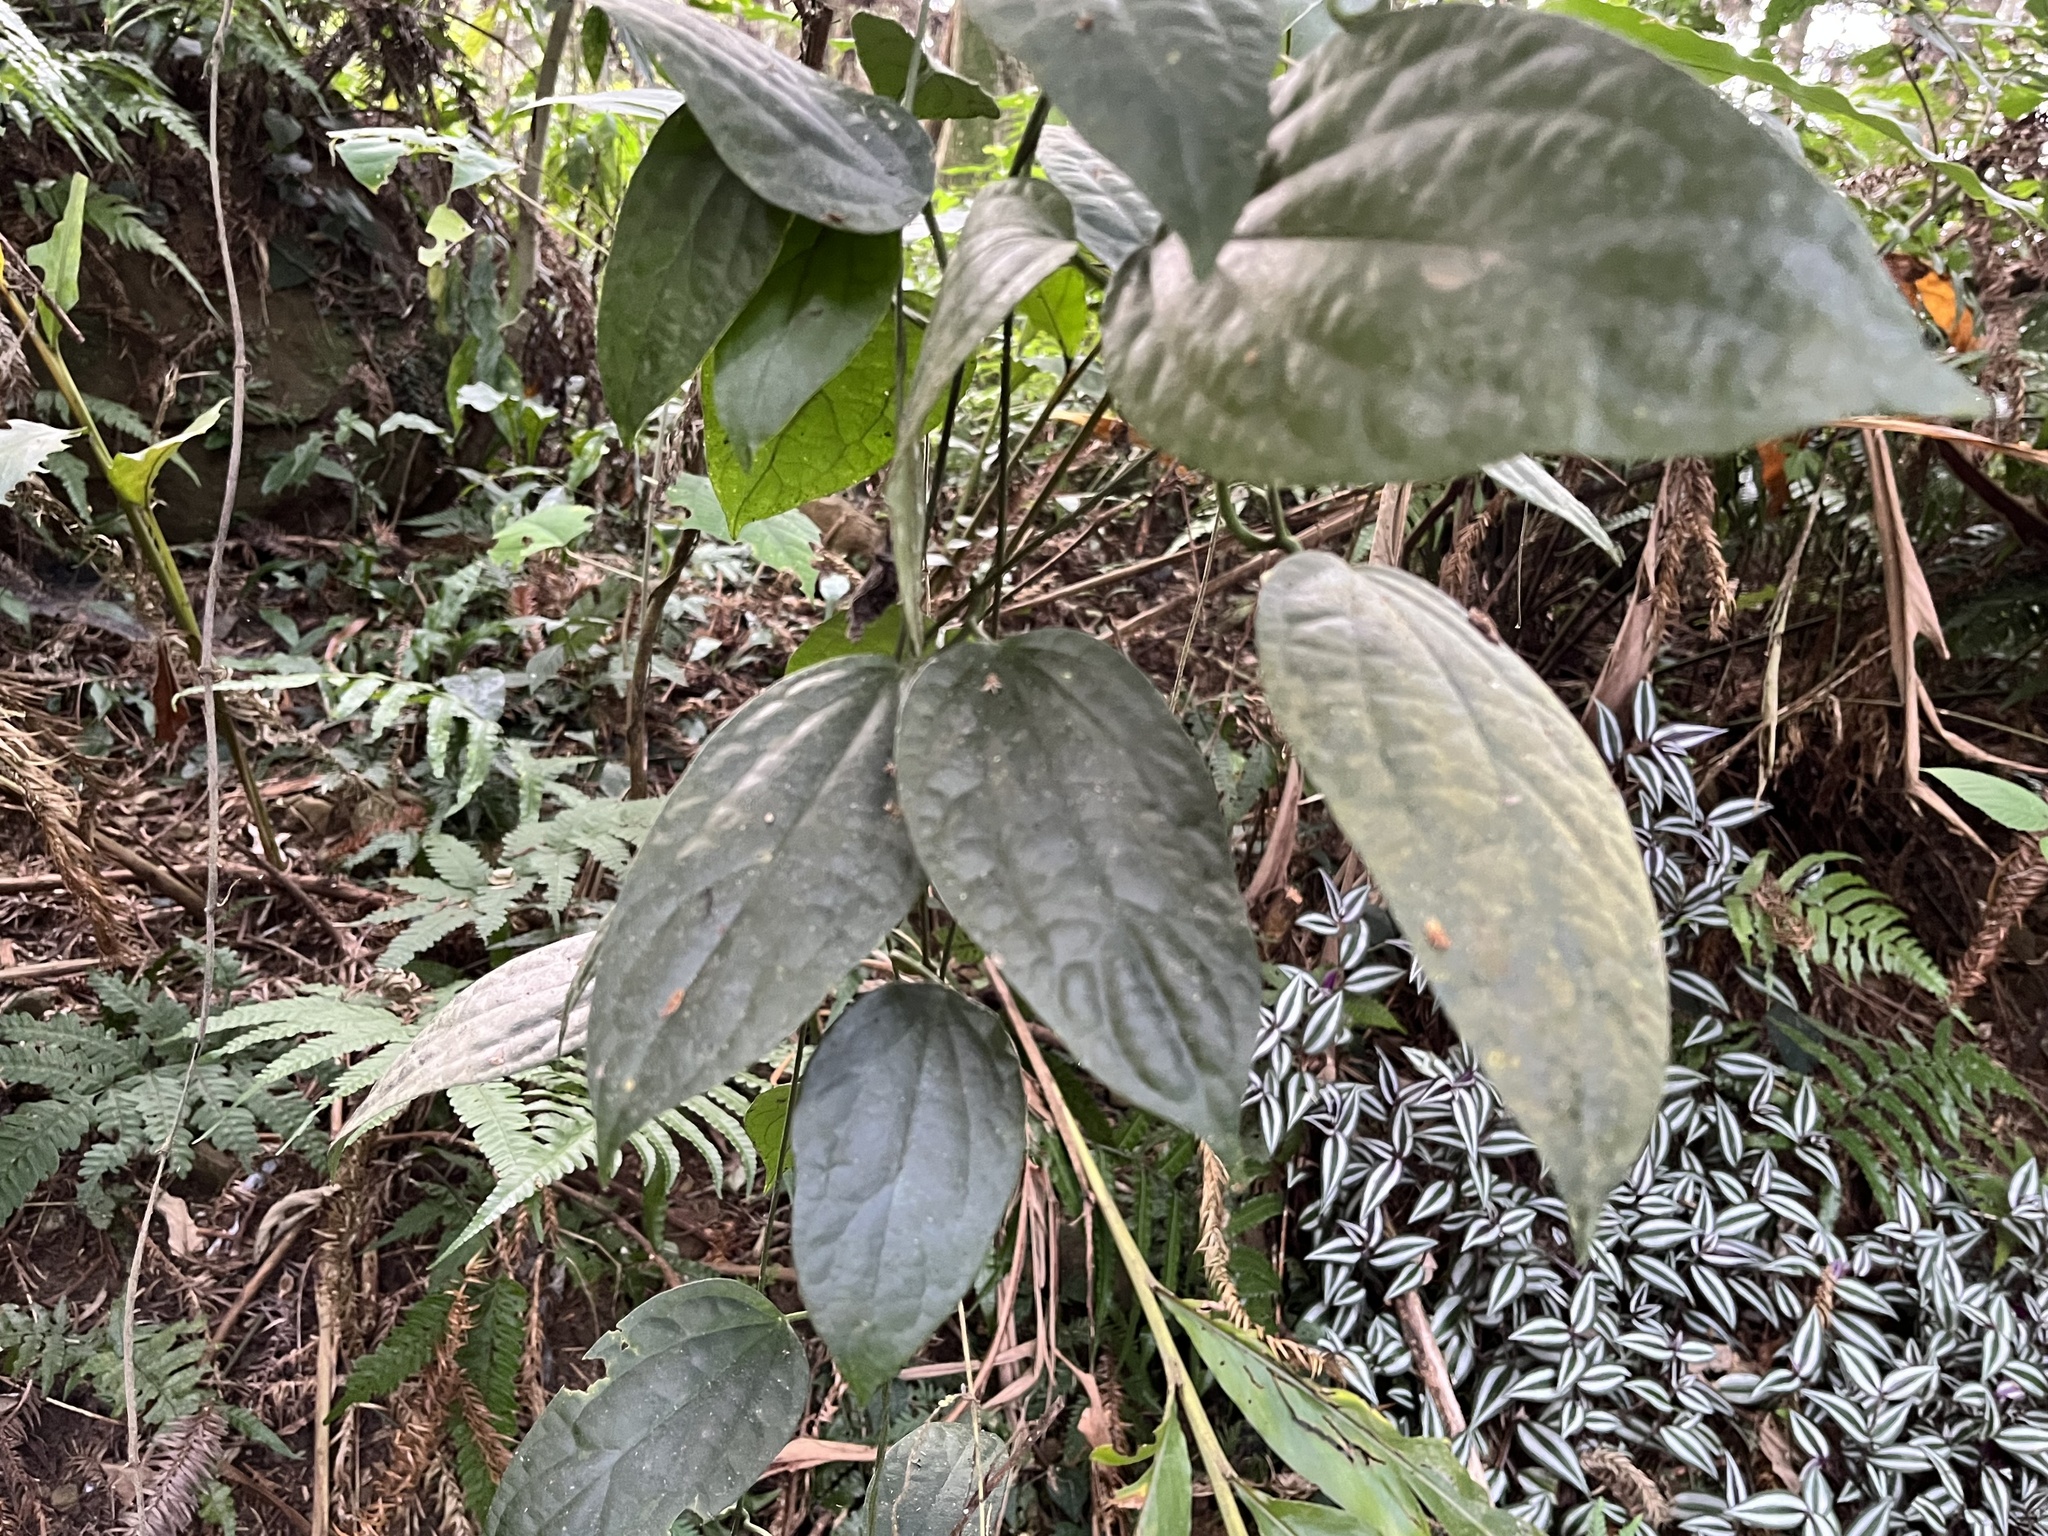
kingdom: Plantae
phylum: Tracheophyta
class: Magnoliopsida
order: Gentianales
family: Apocynaceae
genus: Heterostemma
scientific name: Heterostemma brownii
